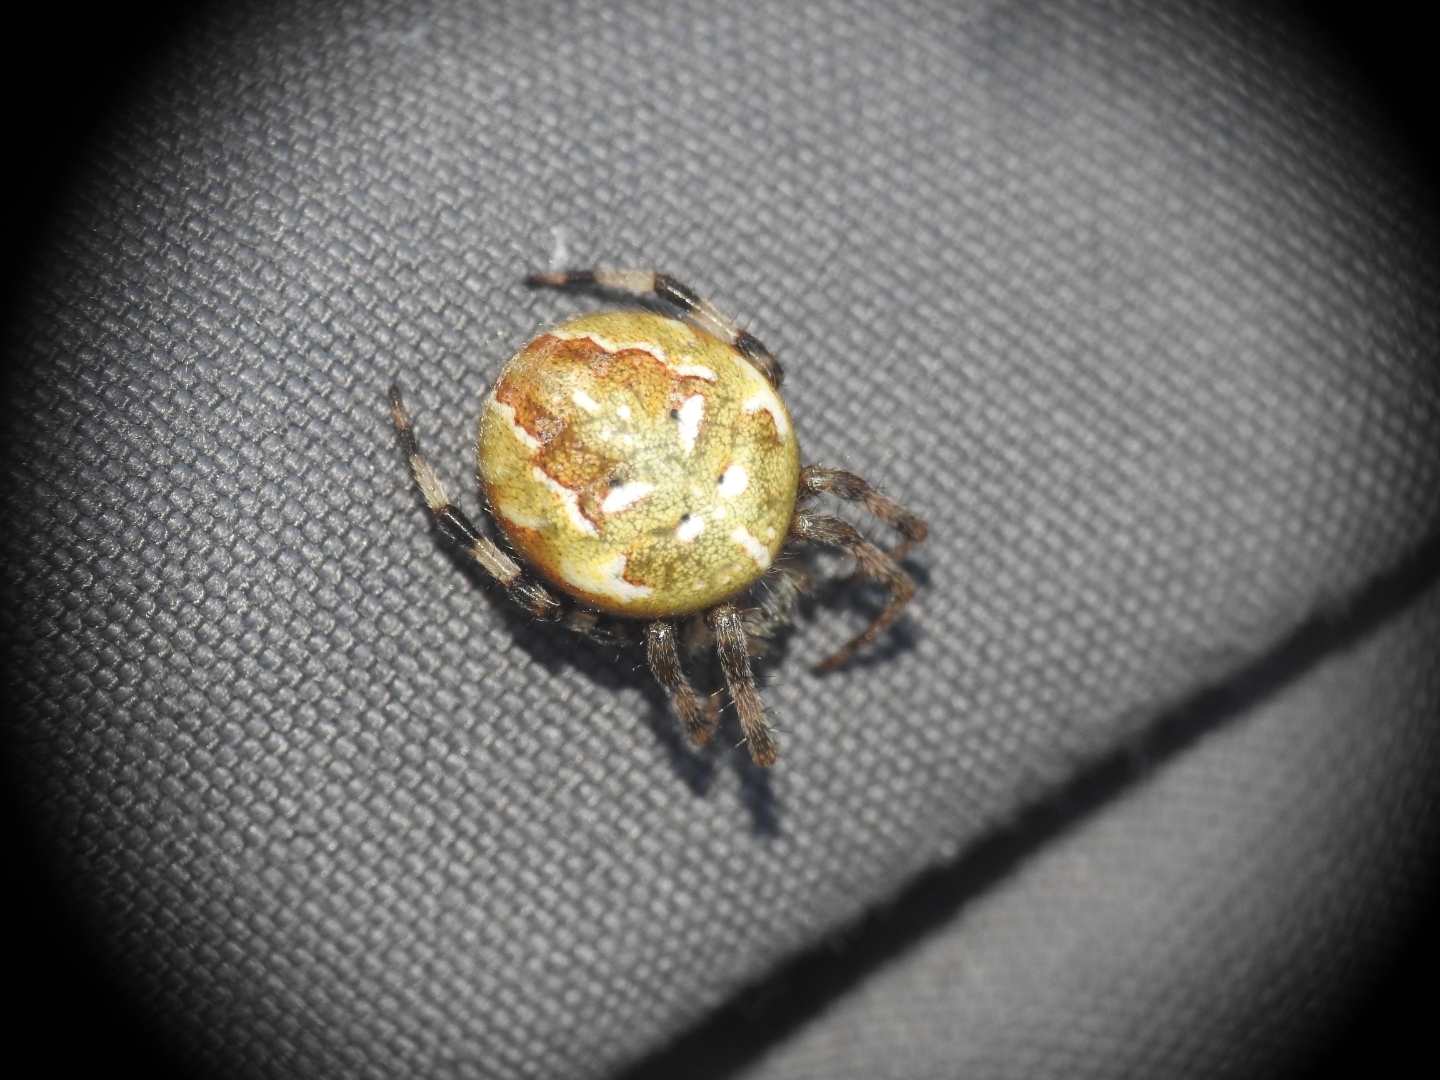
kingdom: Animalia
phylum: Arthropoda
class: Arachnida
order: Araneae
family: Araneidae
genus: Araneus
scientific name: Araneus quadratus
